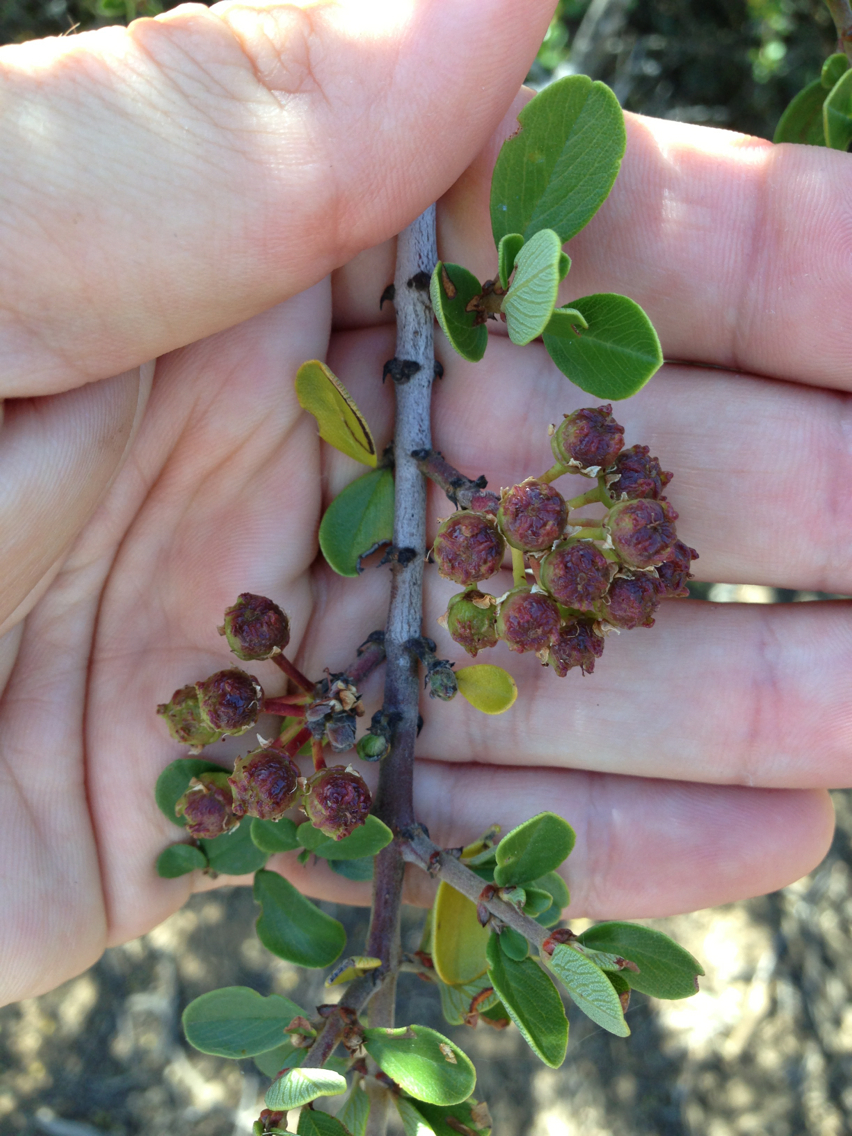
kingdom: Plantae
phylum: Tracheophyta
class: Magnoliopsida
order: Rosales
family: Rhamnaceae
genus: Ceanothus
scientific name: Ceanothus cuneatus
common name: Cuneate ceanothus
